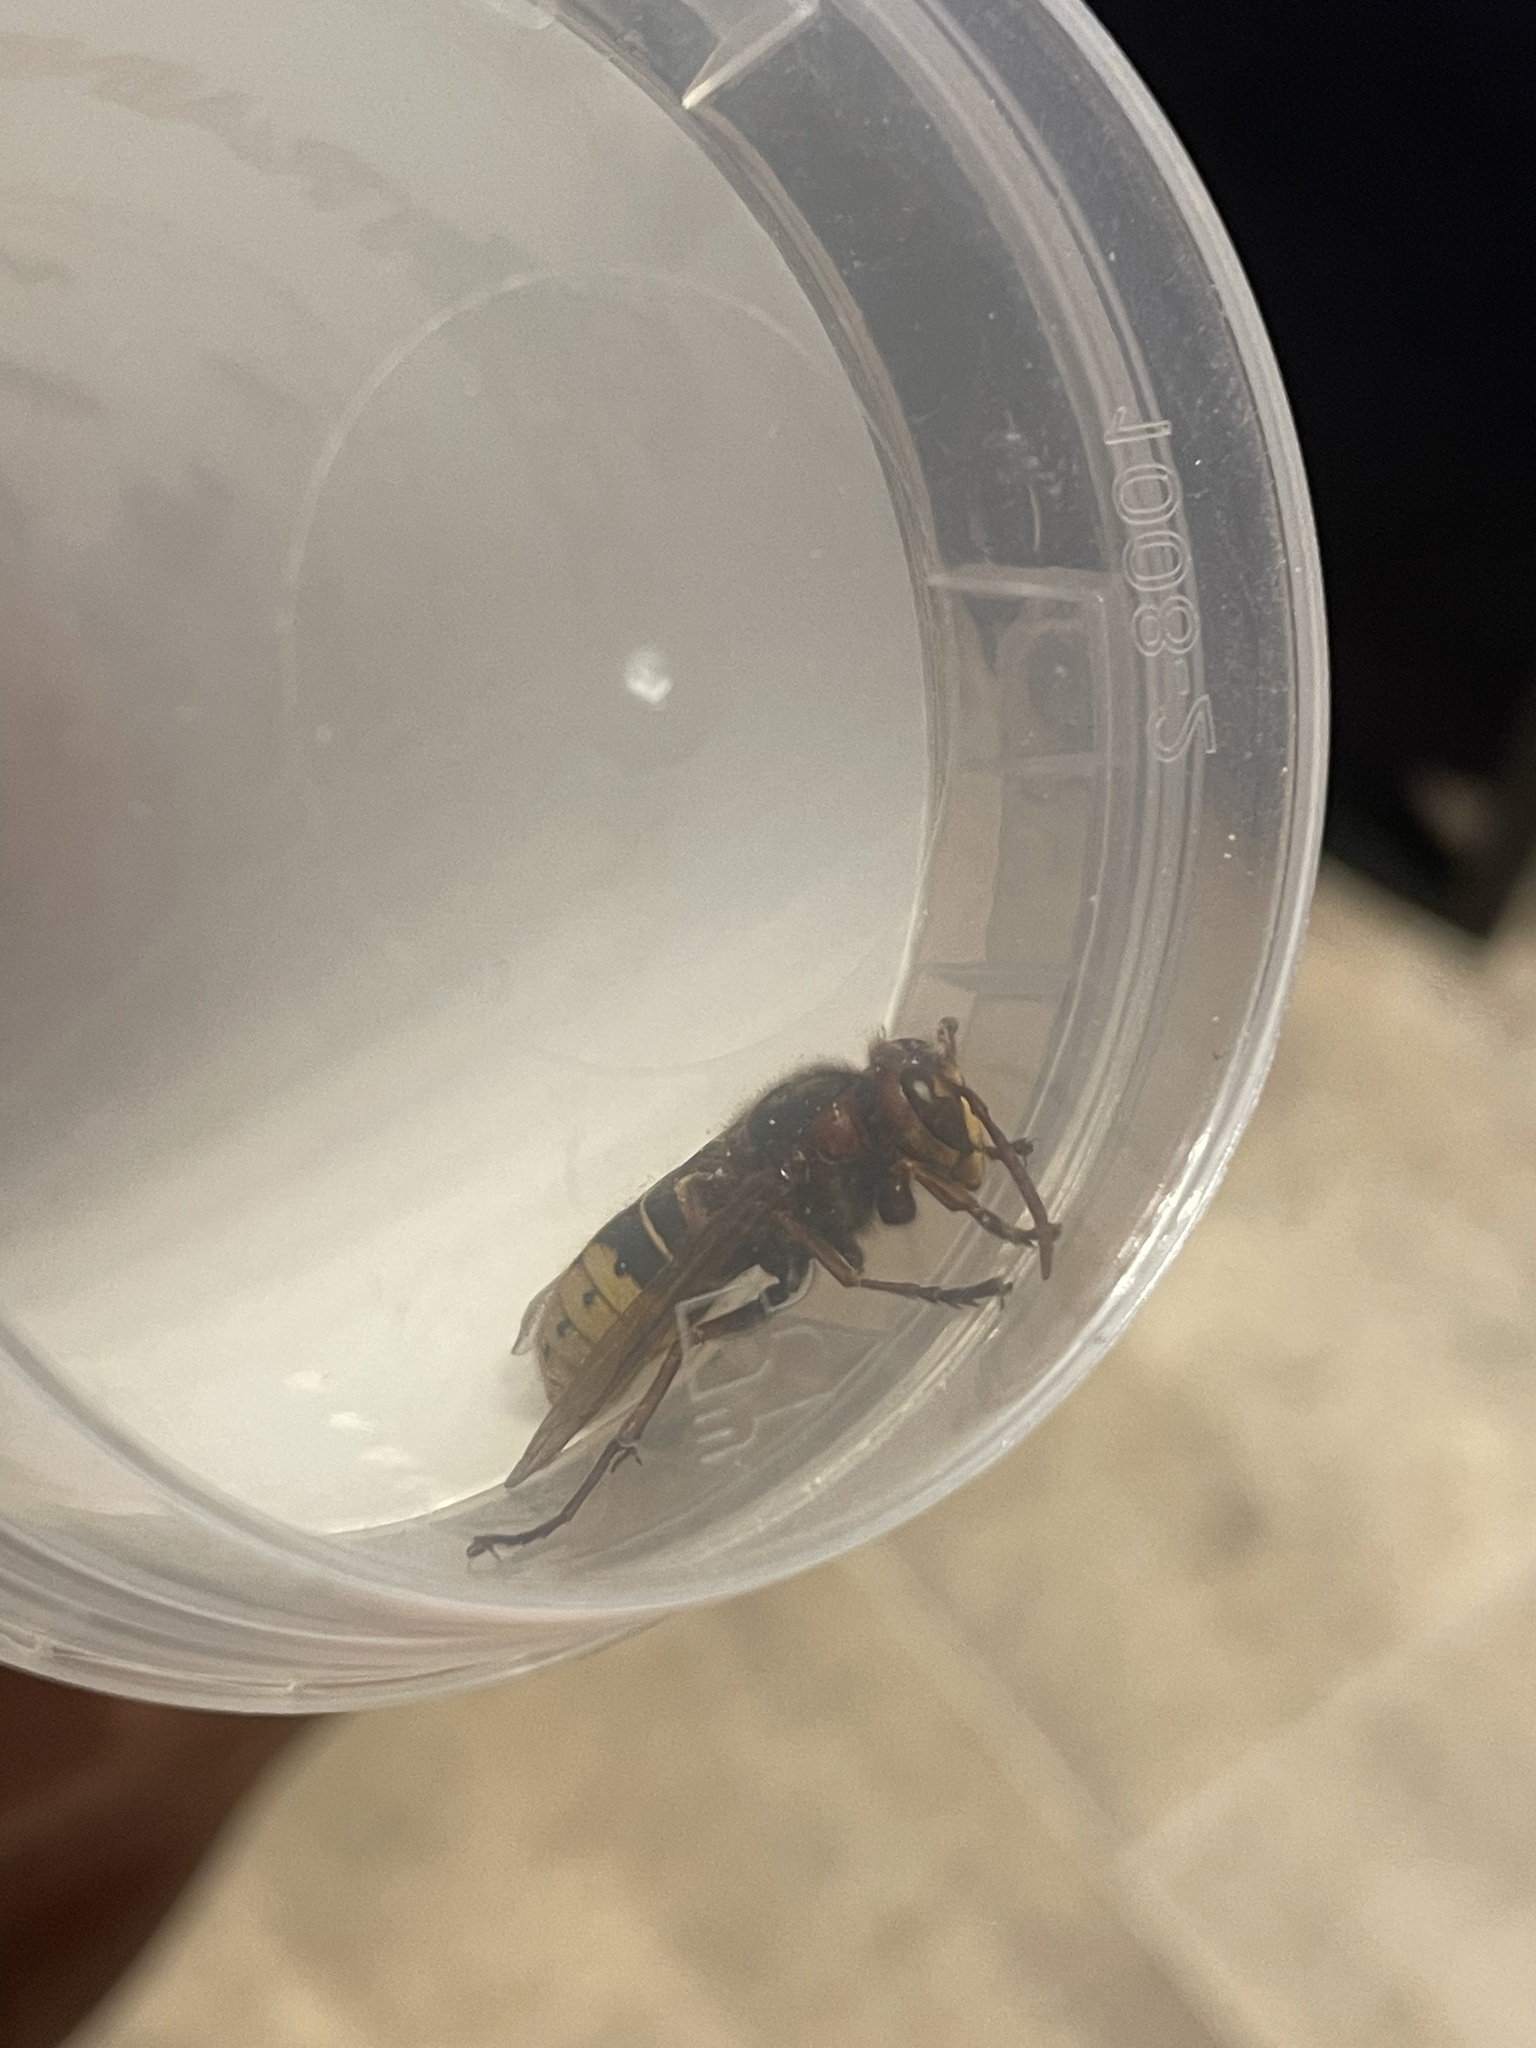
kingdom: Animalia
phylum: Arthropoda
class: Insecta
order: Hymenoptera
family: Vespidae
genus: Vespa
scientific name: Vespa crabro
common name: Hornet
